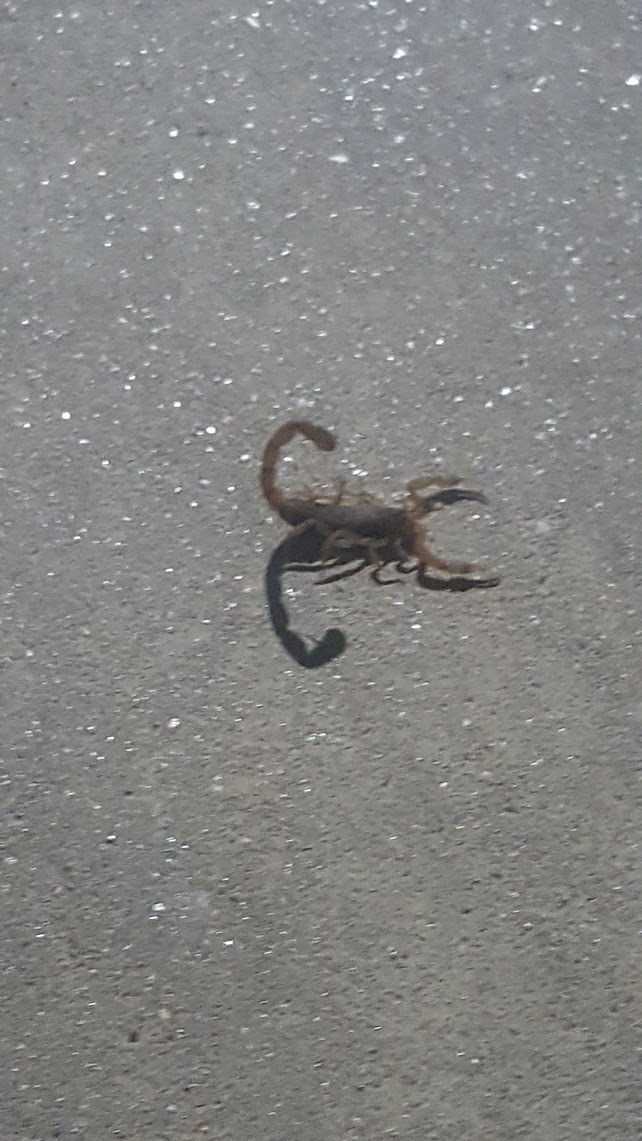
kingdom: Animalia
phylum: Arthropoda
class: Arachnida
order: Scorpiones
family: Buthidae
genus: Centruroides
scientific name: Centruroides vittatus
